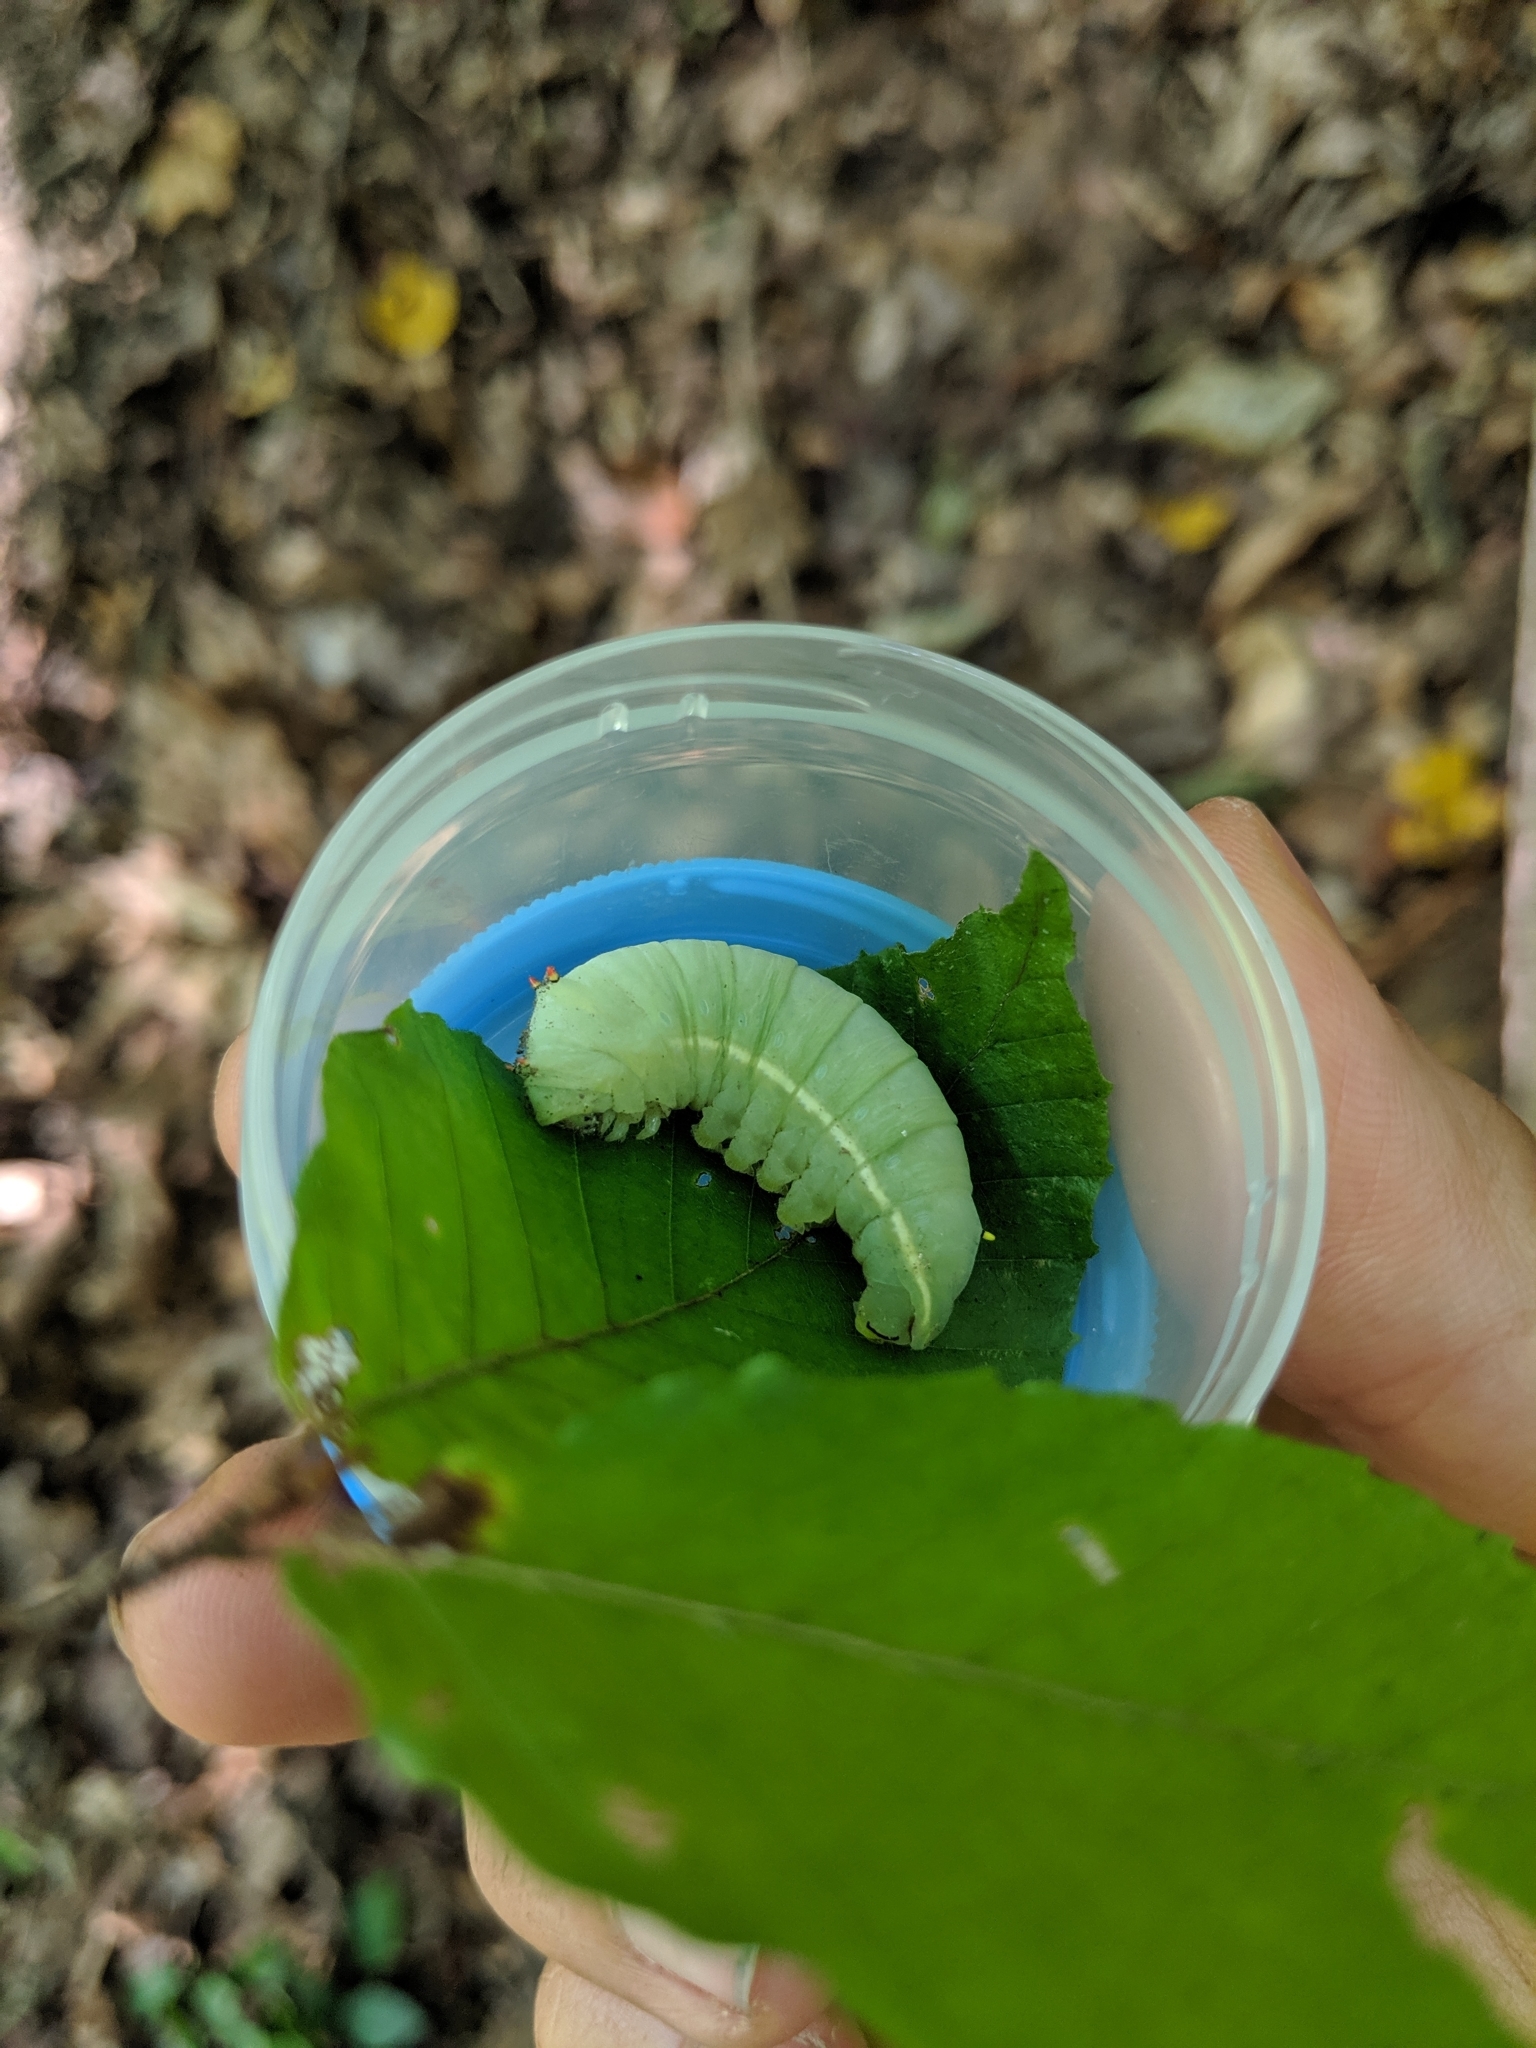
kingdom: Animalia
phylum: Arthropoda
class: Insecta
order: Lepidoptera
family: Saturniidae
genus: Callosamia
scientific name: Callosamia angulifera
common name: Tulip tree silkmoth
